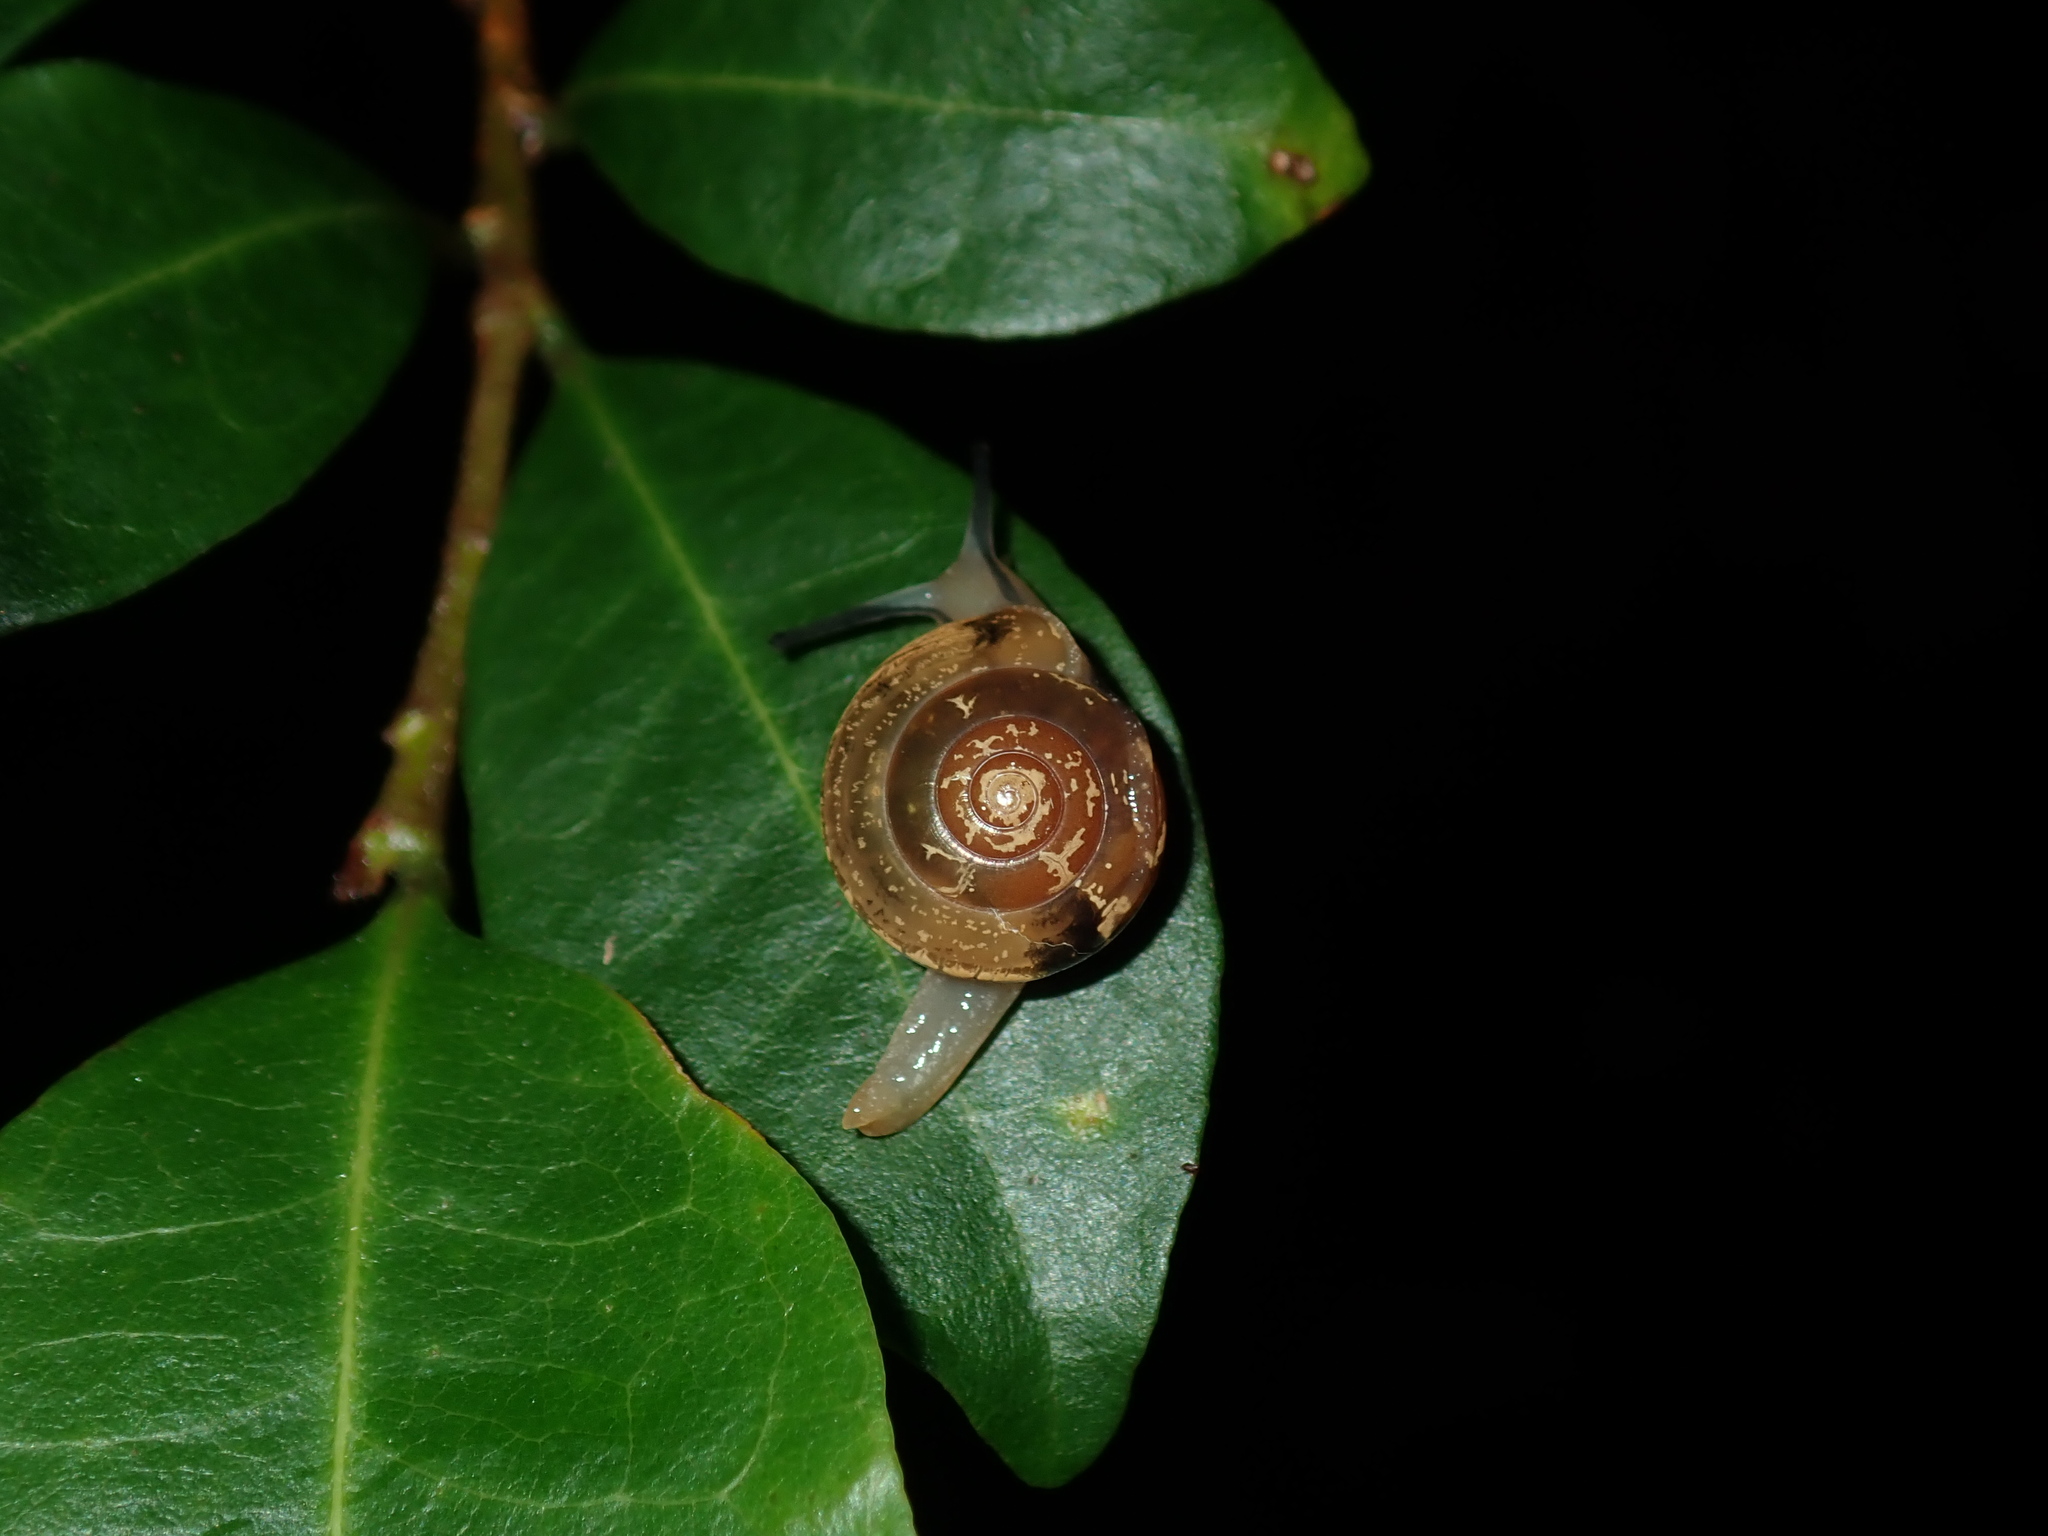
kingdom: Animalia
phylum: Mollusca
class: Gastropoda
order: Stylommatophora
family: Helicarionidae
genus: Nitor
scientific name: Nitor sheai
